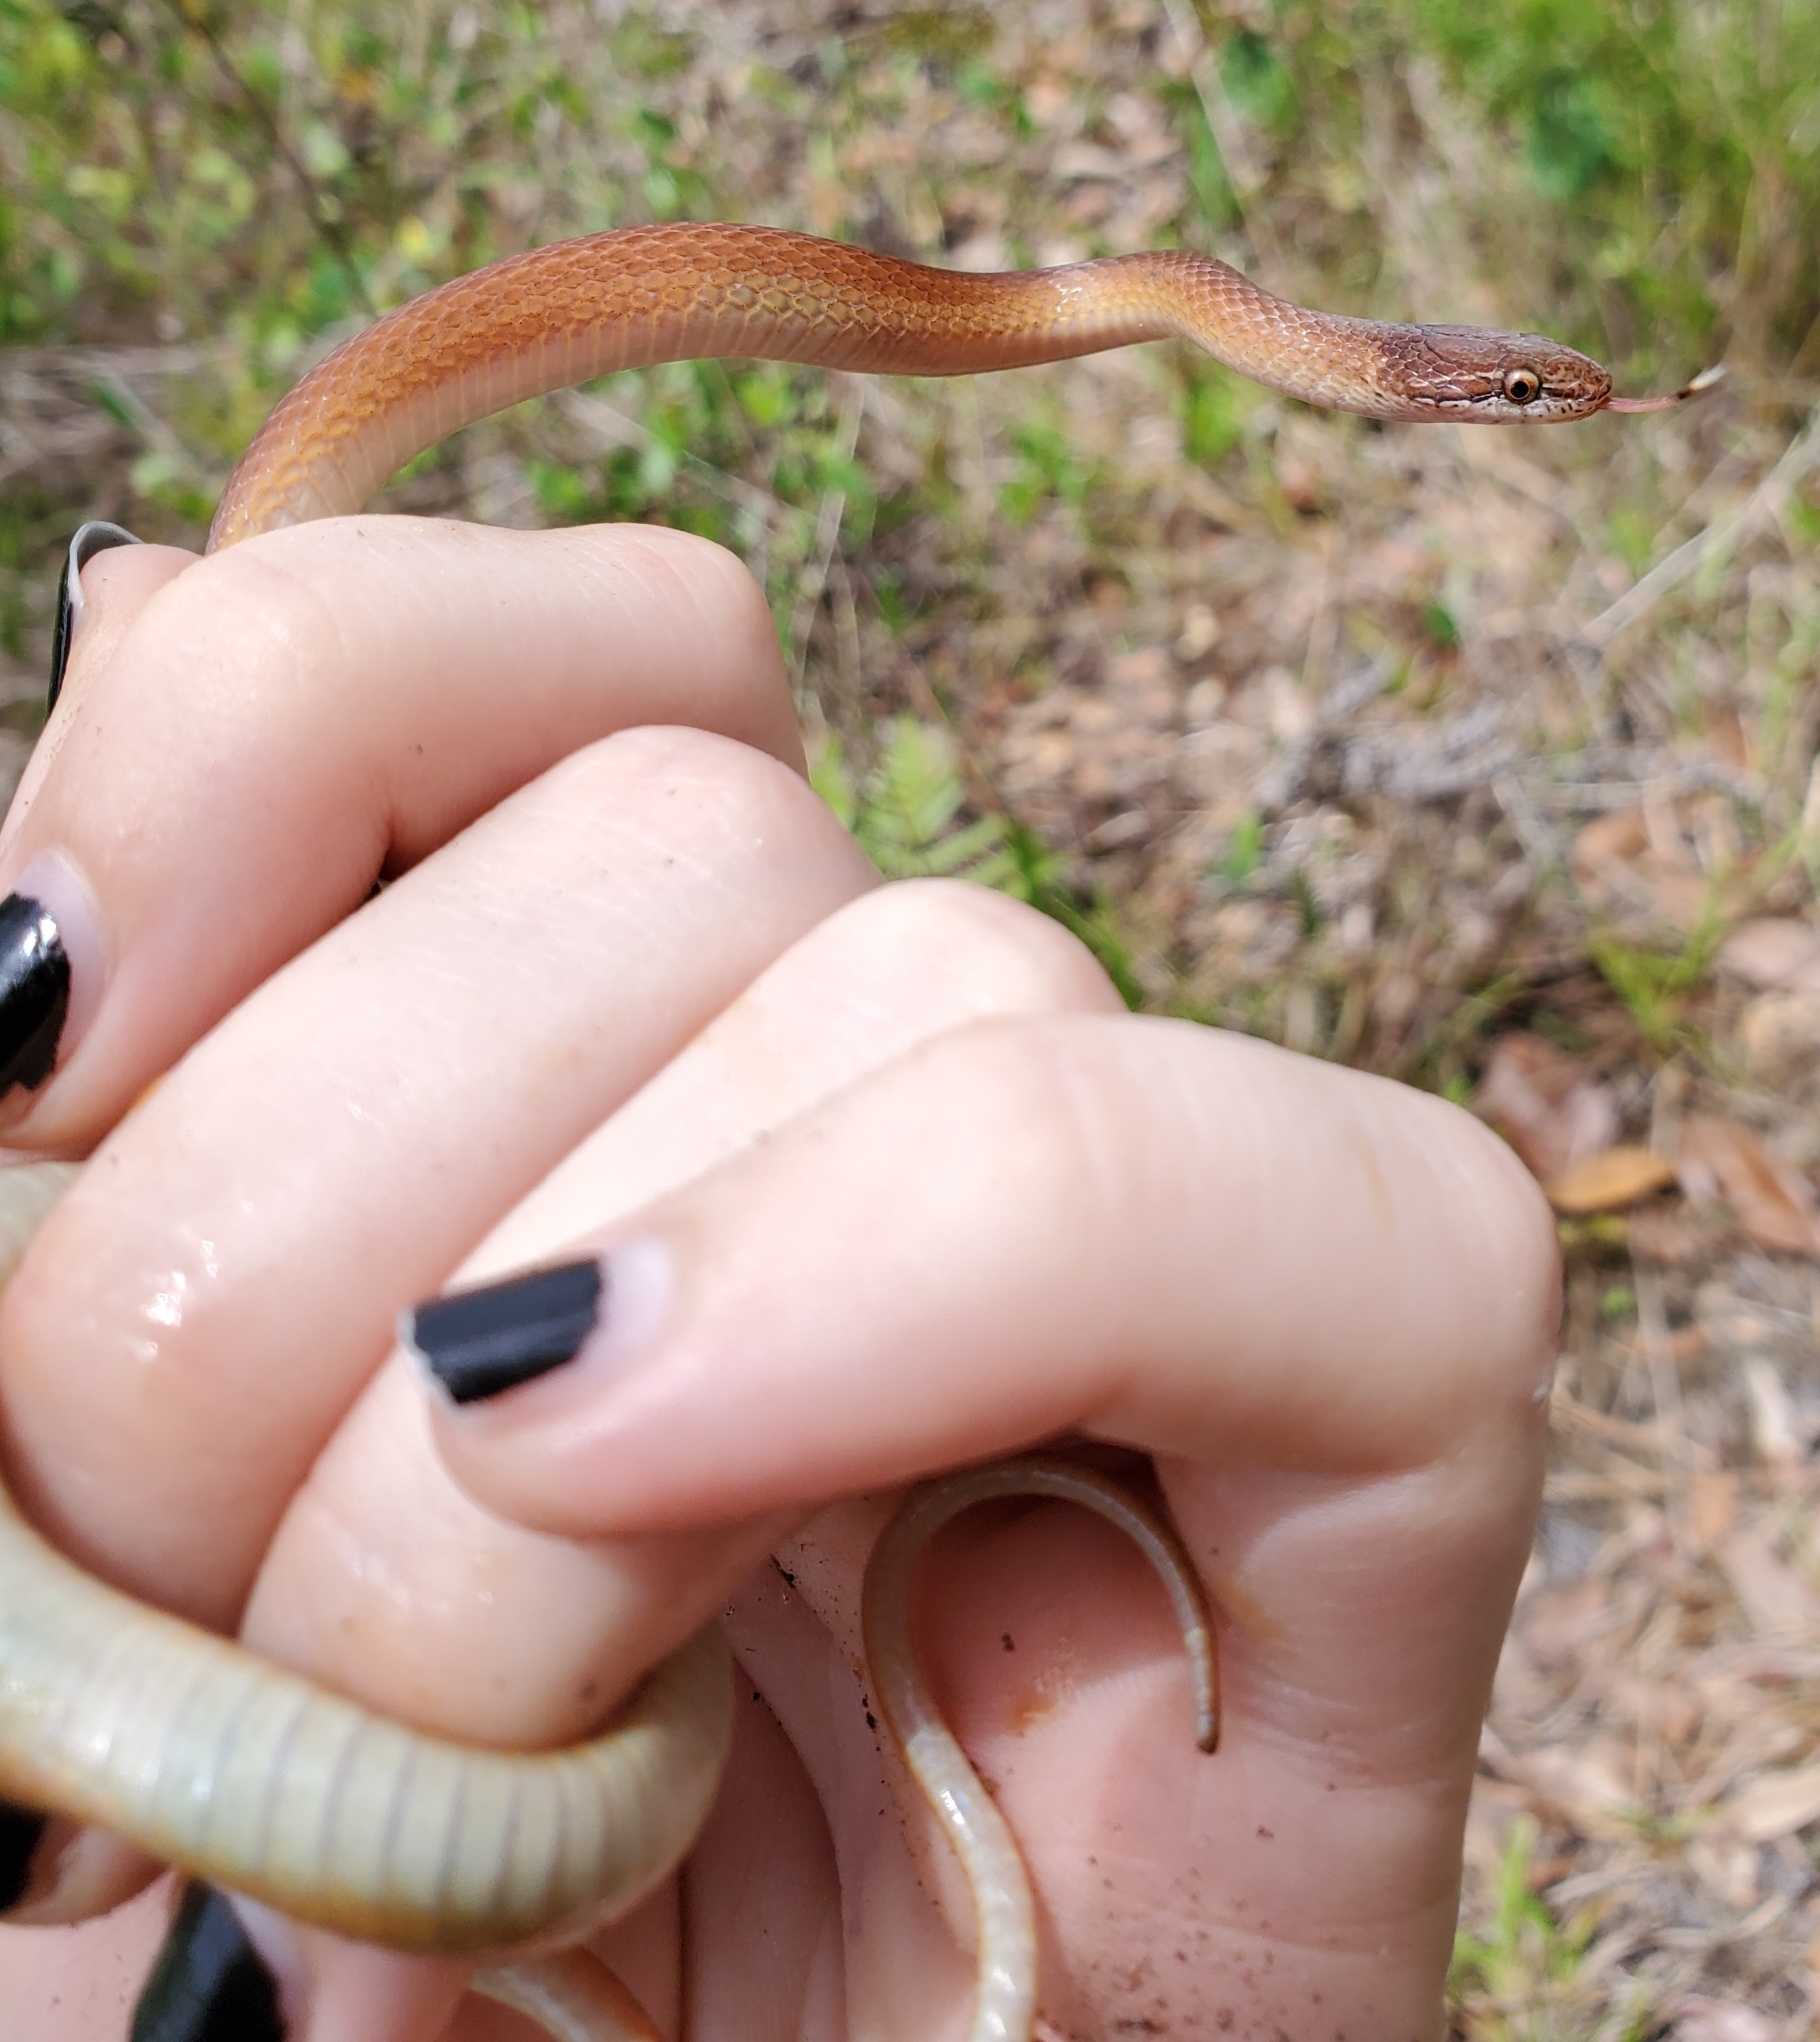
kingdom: Animalia
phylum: Chordata
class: Squamata
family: Colubridae
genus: Rhadinaea
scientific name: Rhadinaea flavilata
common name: Pine woods littersnake
